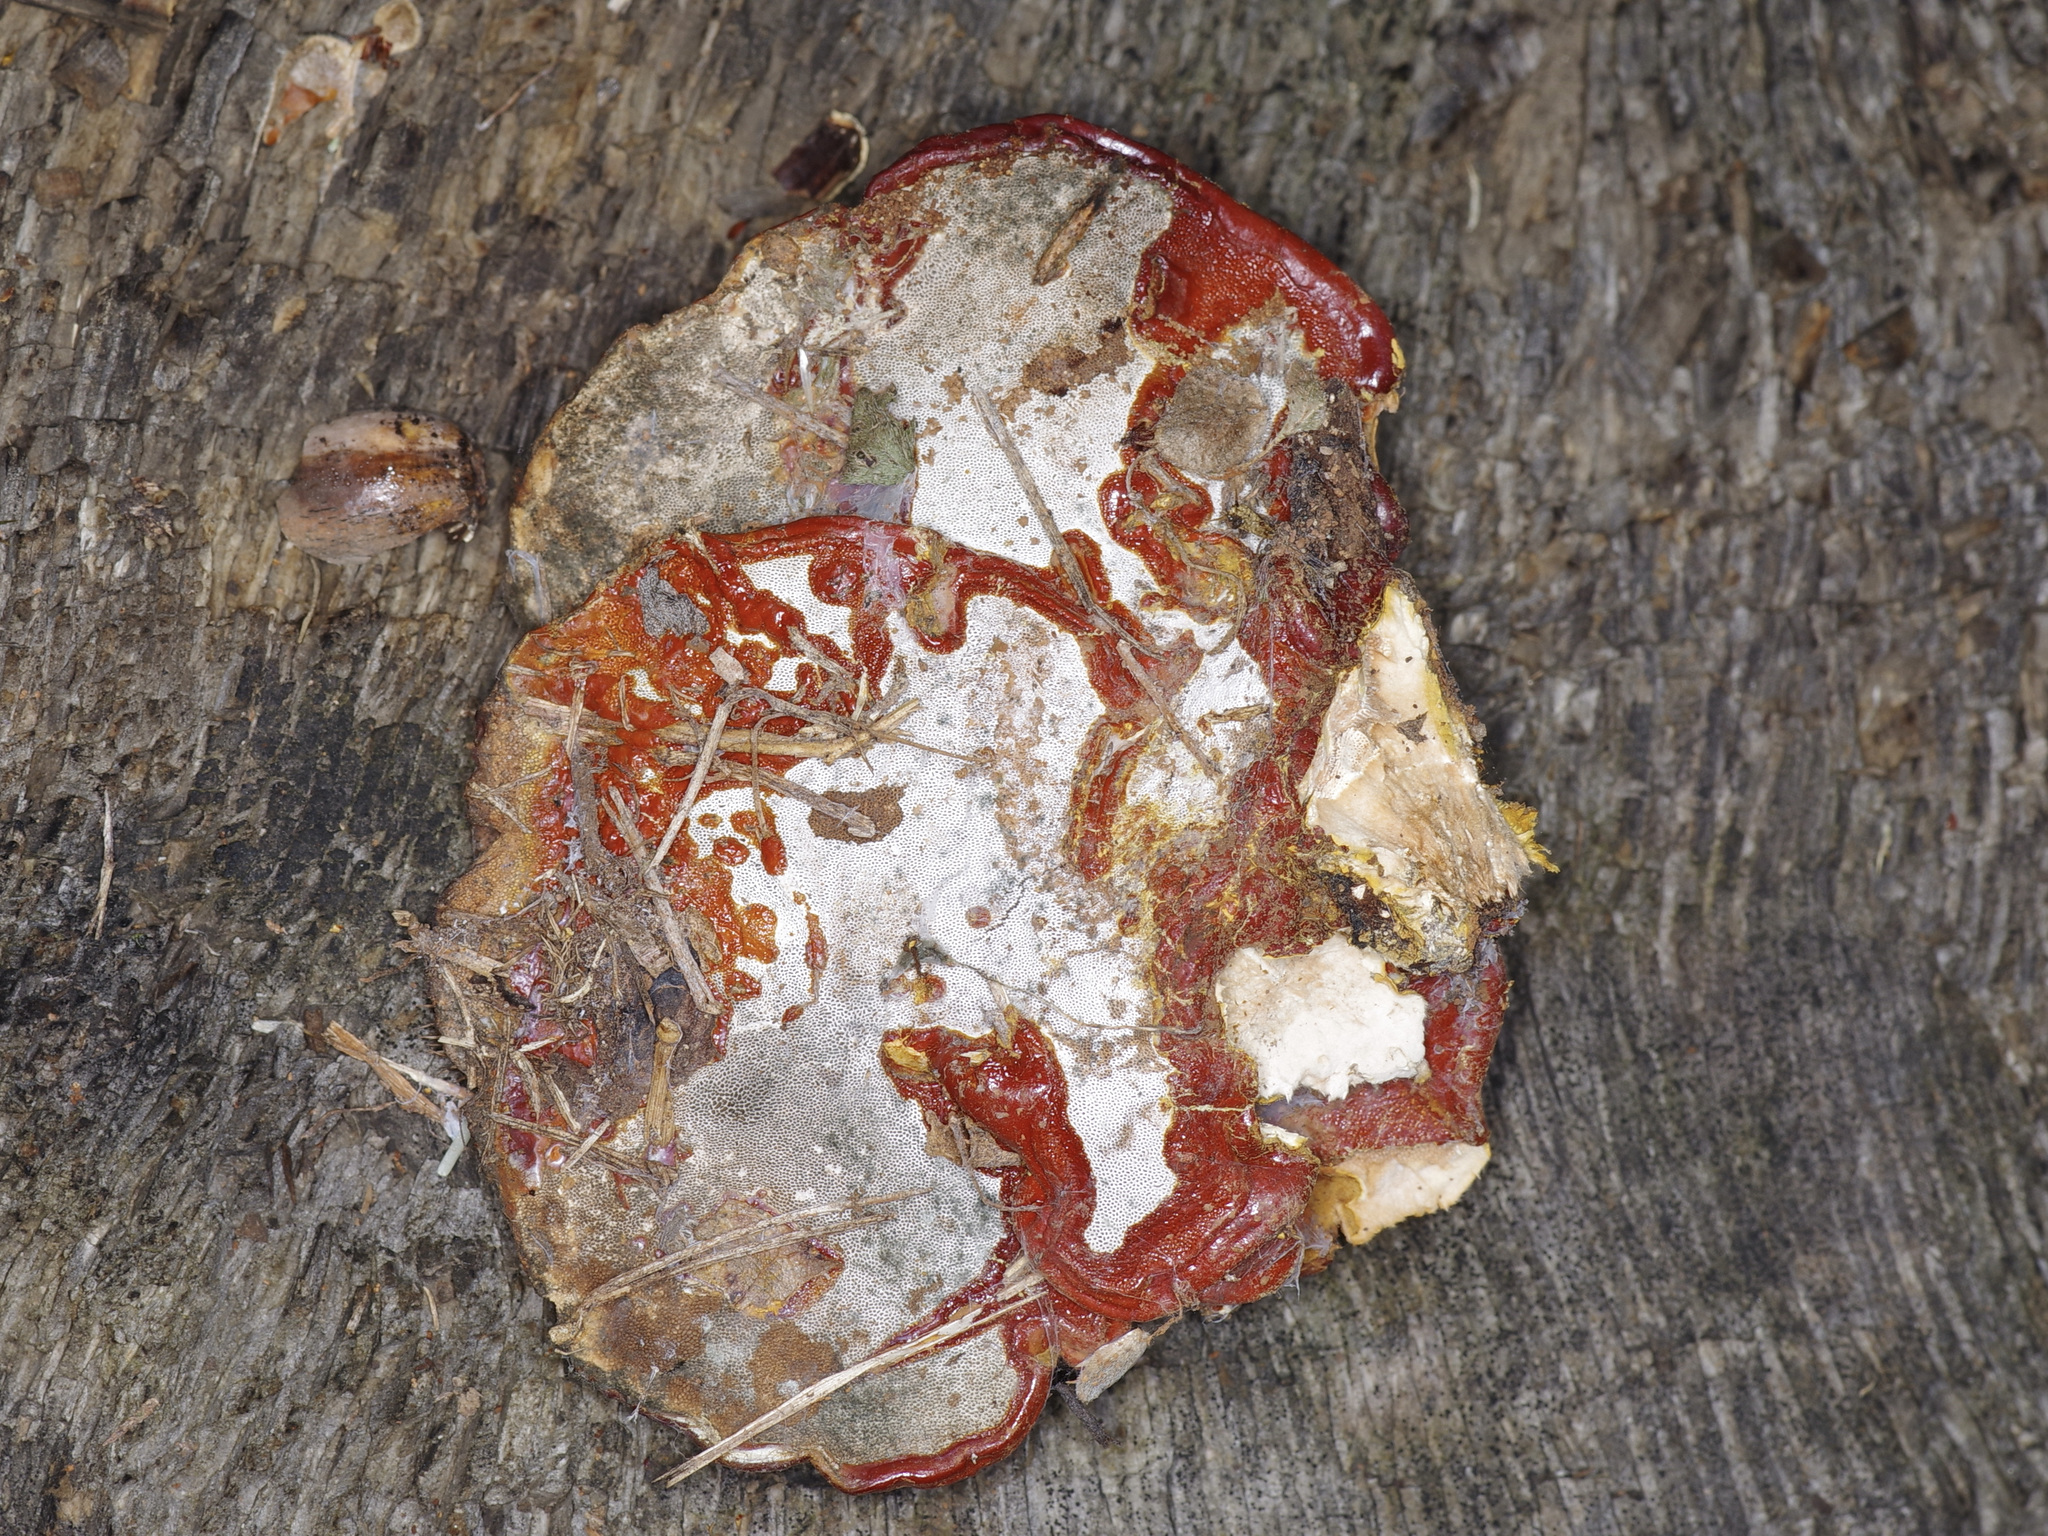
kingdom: Fungi
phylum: Basidiomycota
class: Agaricomycetes
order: Polyporales
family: Polyporaceae
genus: Ganoderma
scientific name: Ganoderma resinaceum
